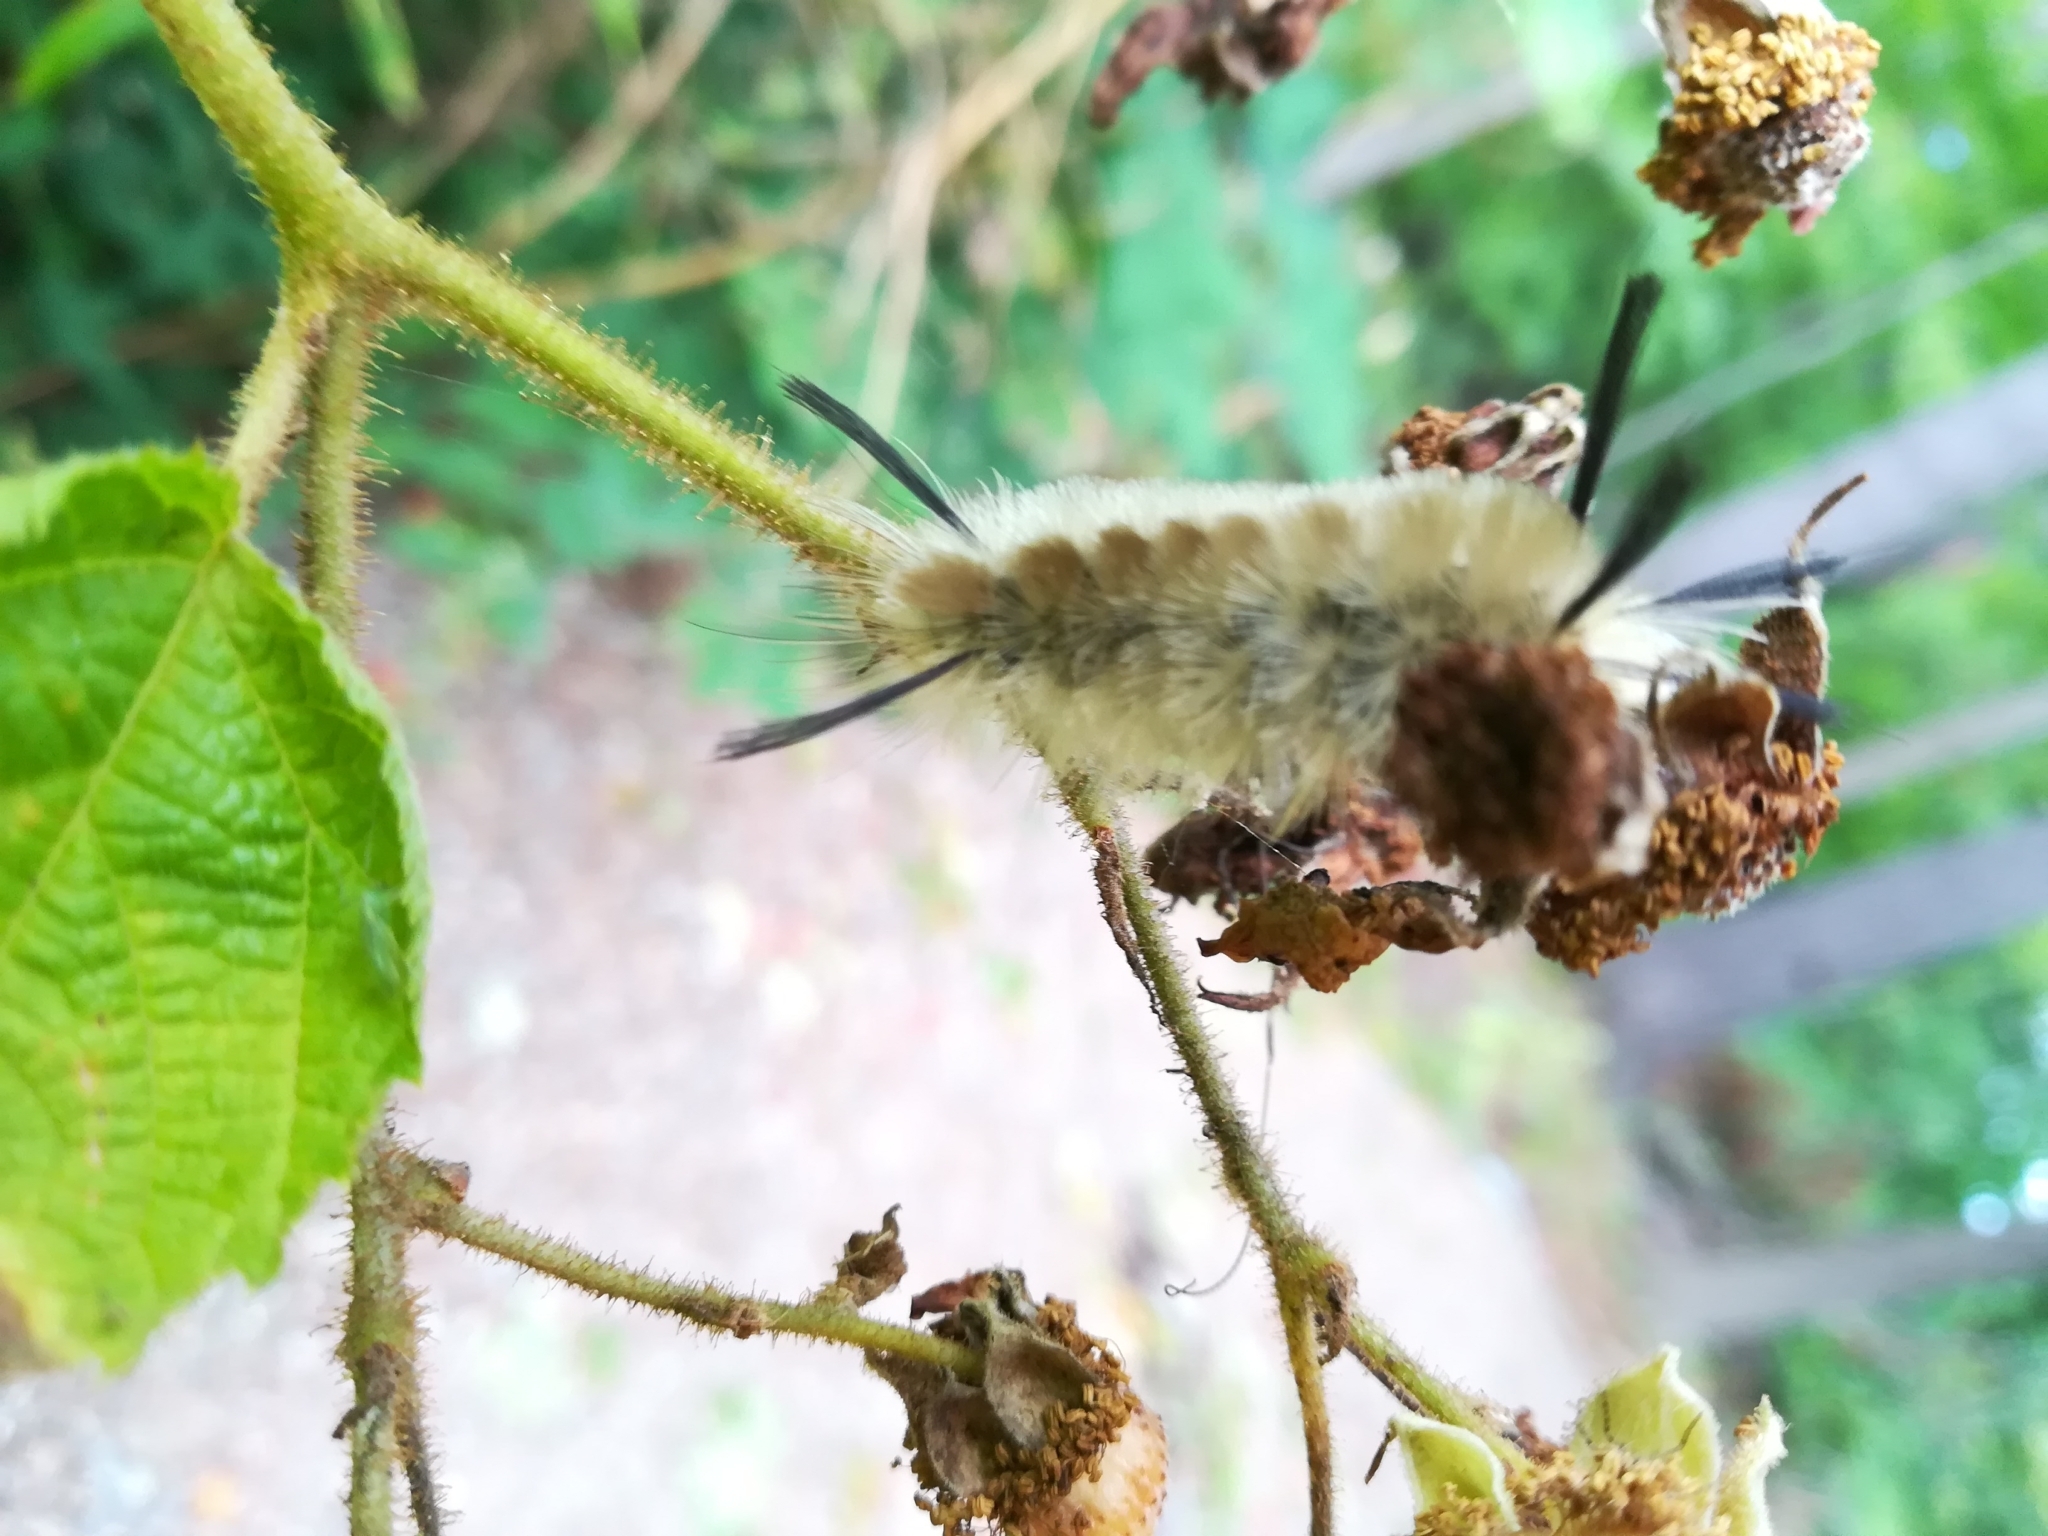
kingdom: Animalia
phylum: Arthropoda
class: Insecta
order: Lepidoptera
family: Erebidae
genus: Halysidota
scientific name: Halysidota tessellaris
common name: Banded tussock moth
